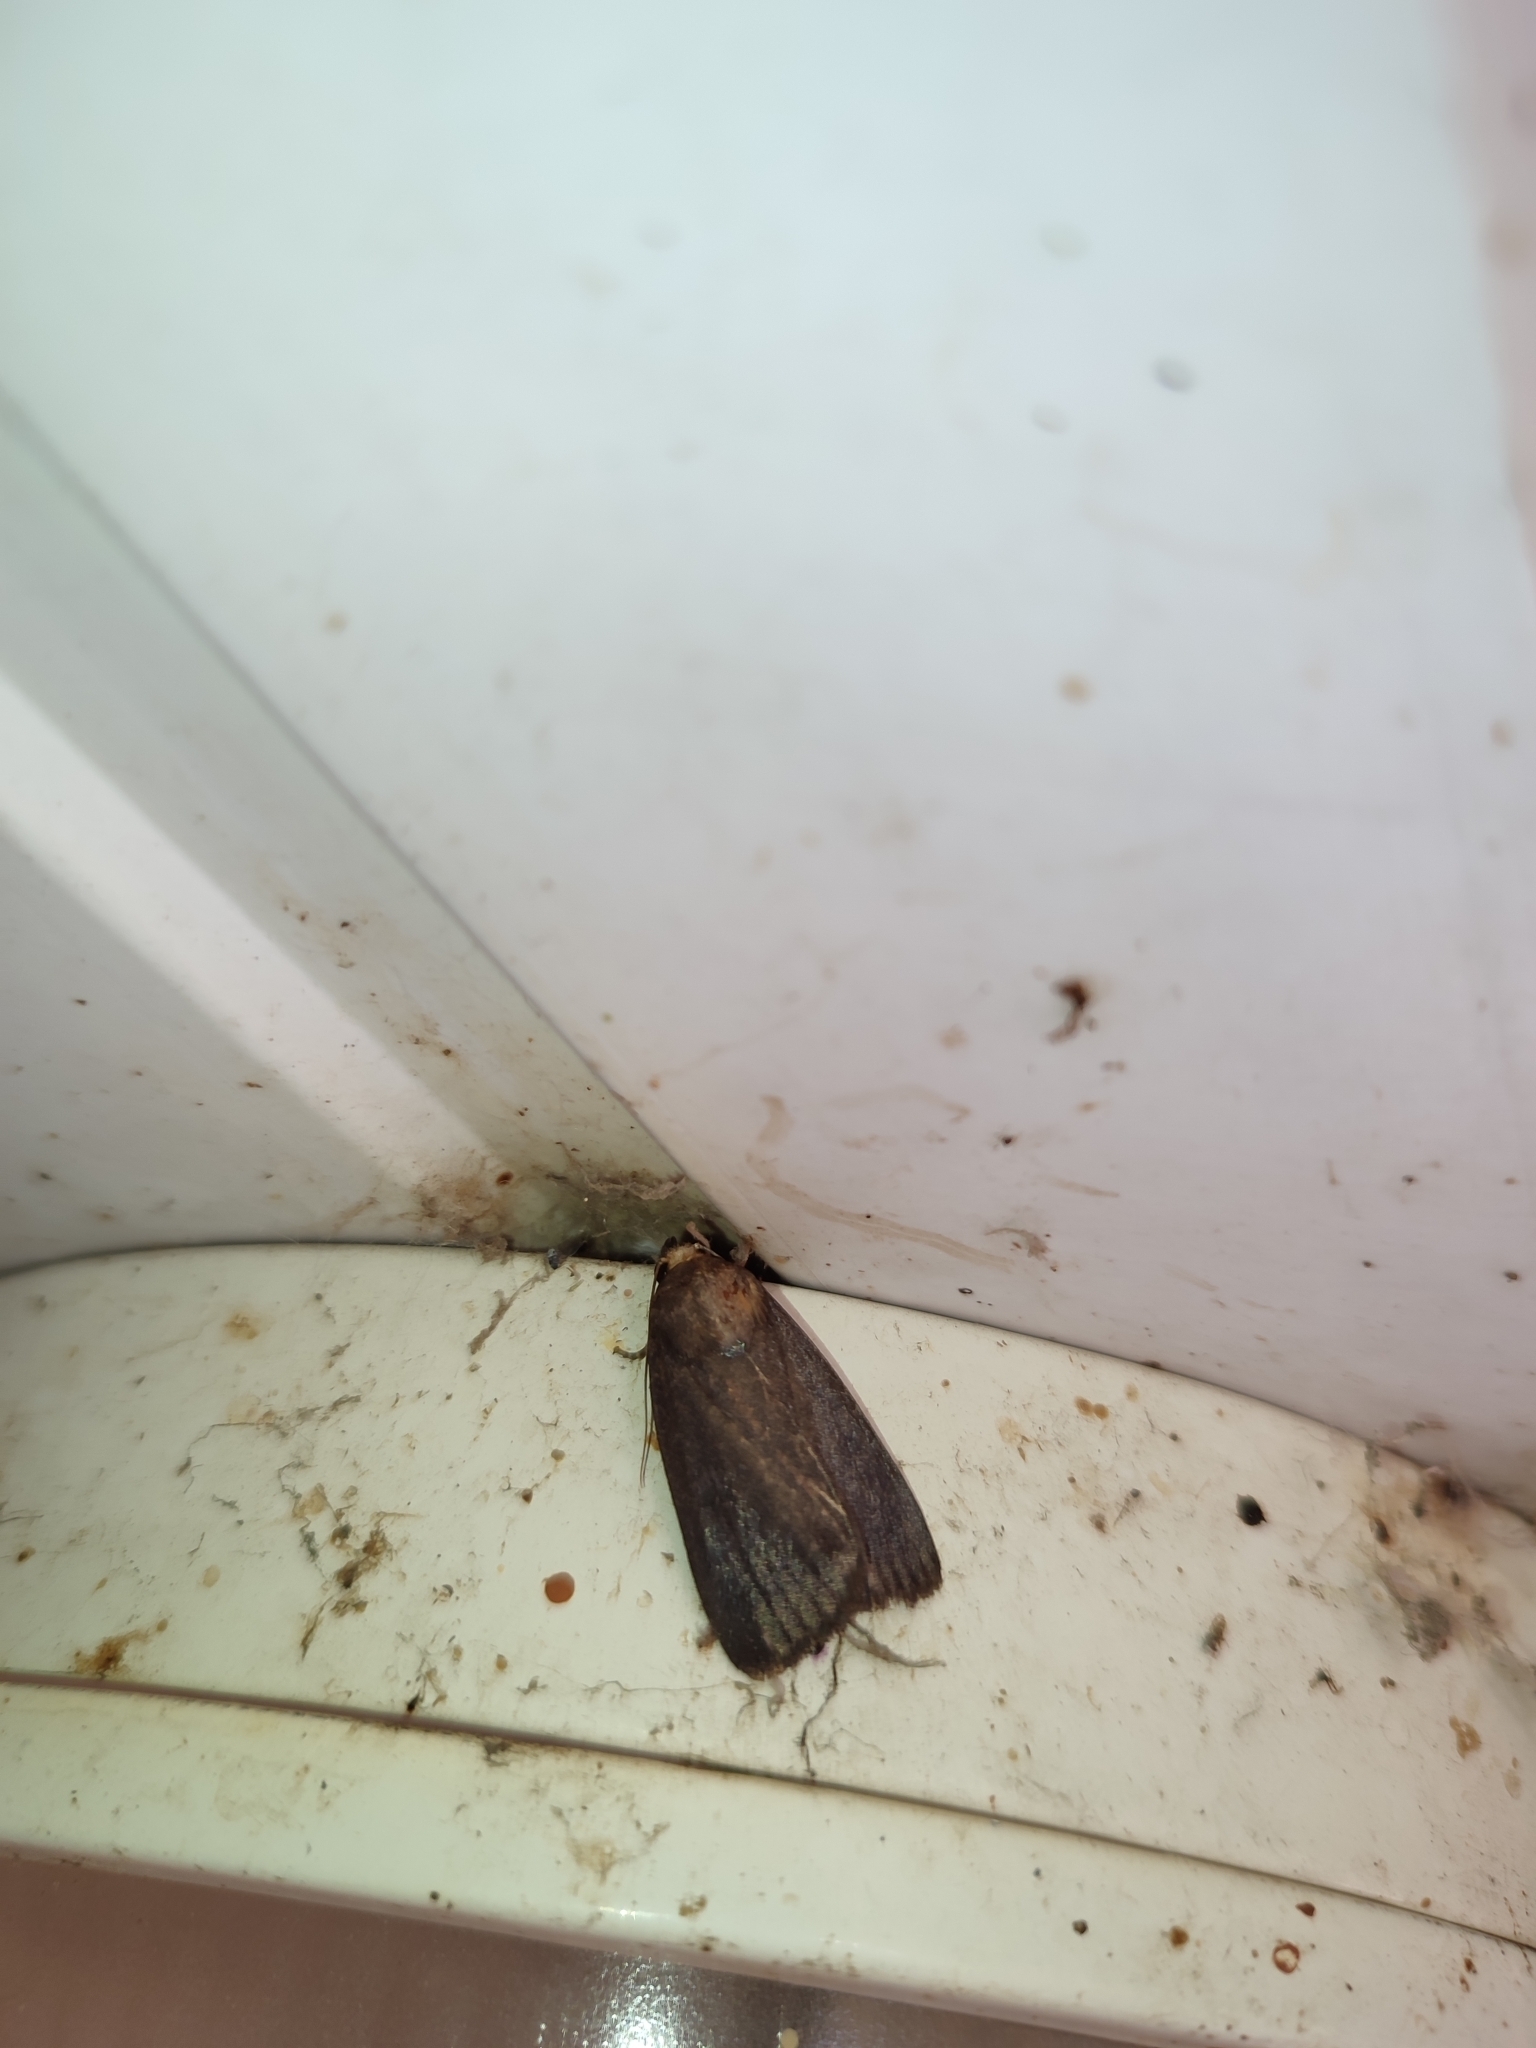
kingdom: Animalia
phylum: Arthropoda
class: Insecta
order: Lepidoptera
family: Noctuidae
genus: Amphipyra
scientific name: Amphipyra livida
